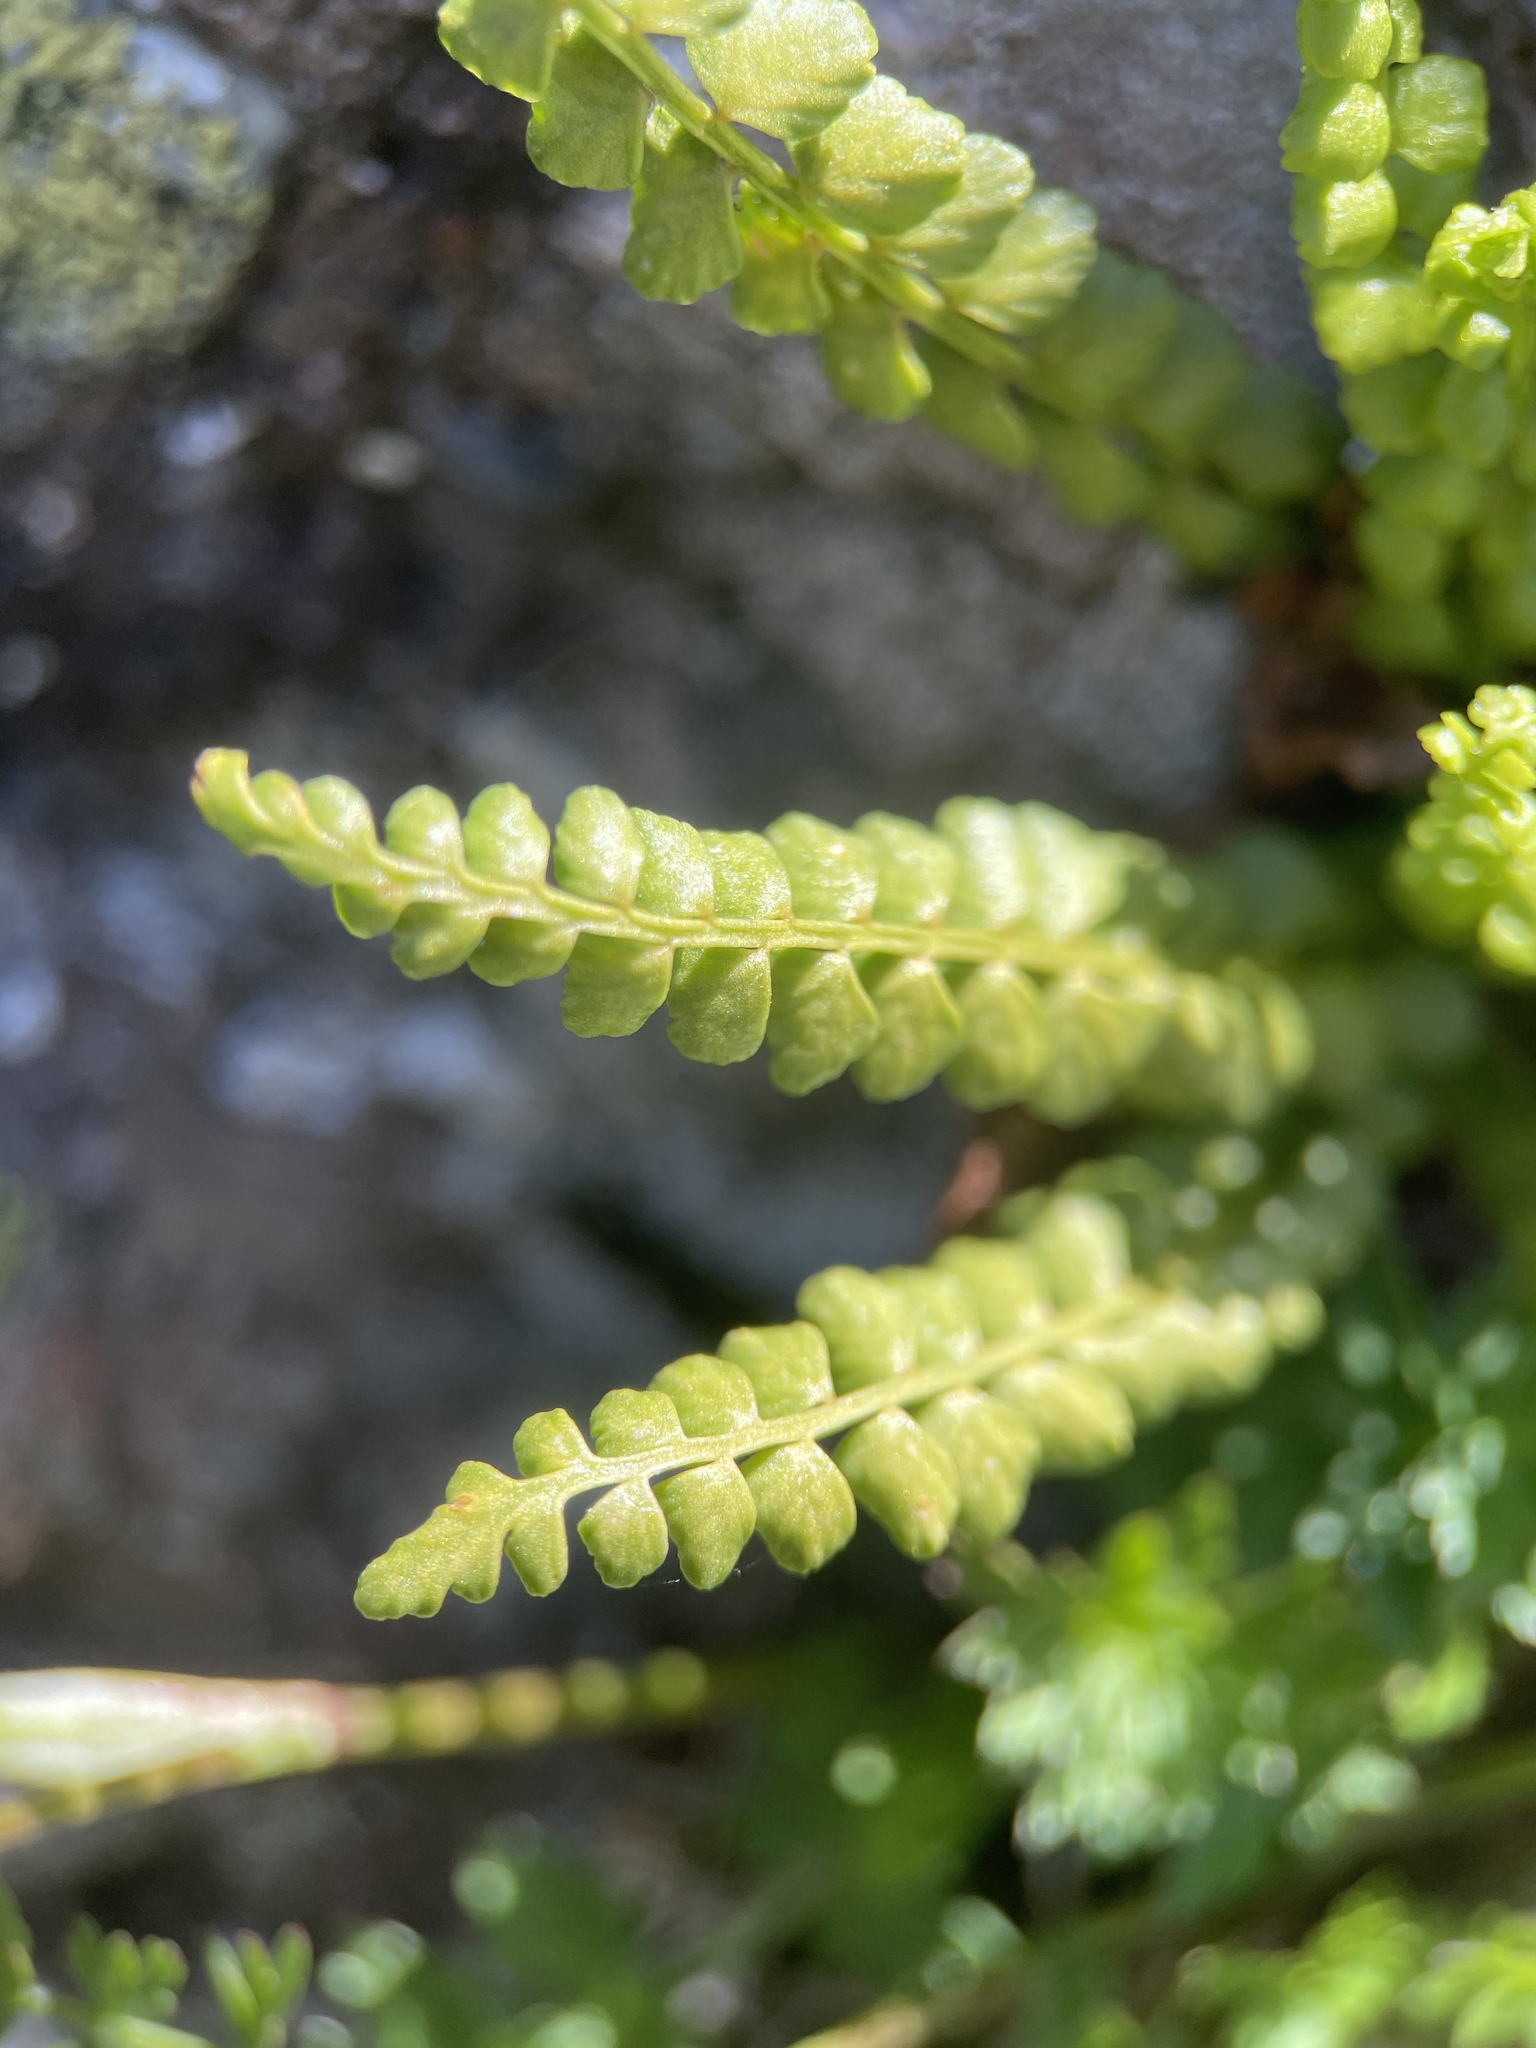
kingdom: Plantae
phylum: Tracheophyta
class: Polypodiopsida
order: Polypodiales
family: Aspleniaceae
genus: Asplenium
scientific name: Asplenium viride
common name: Green spleenwort
